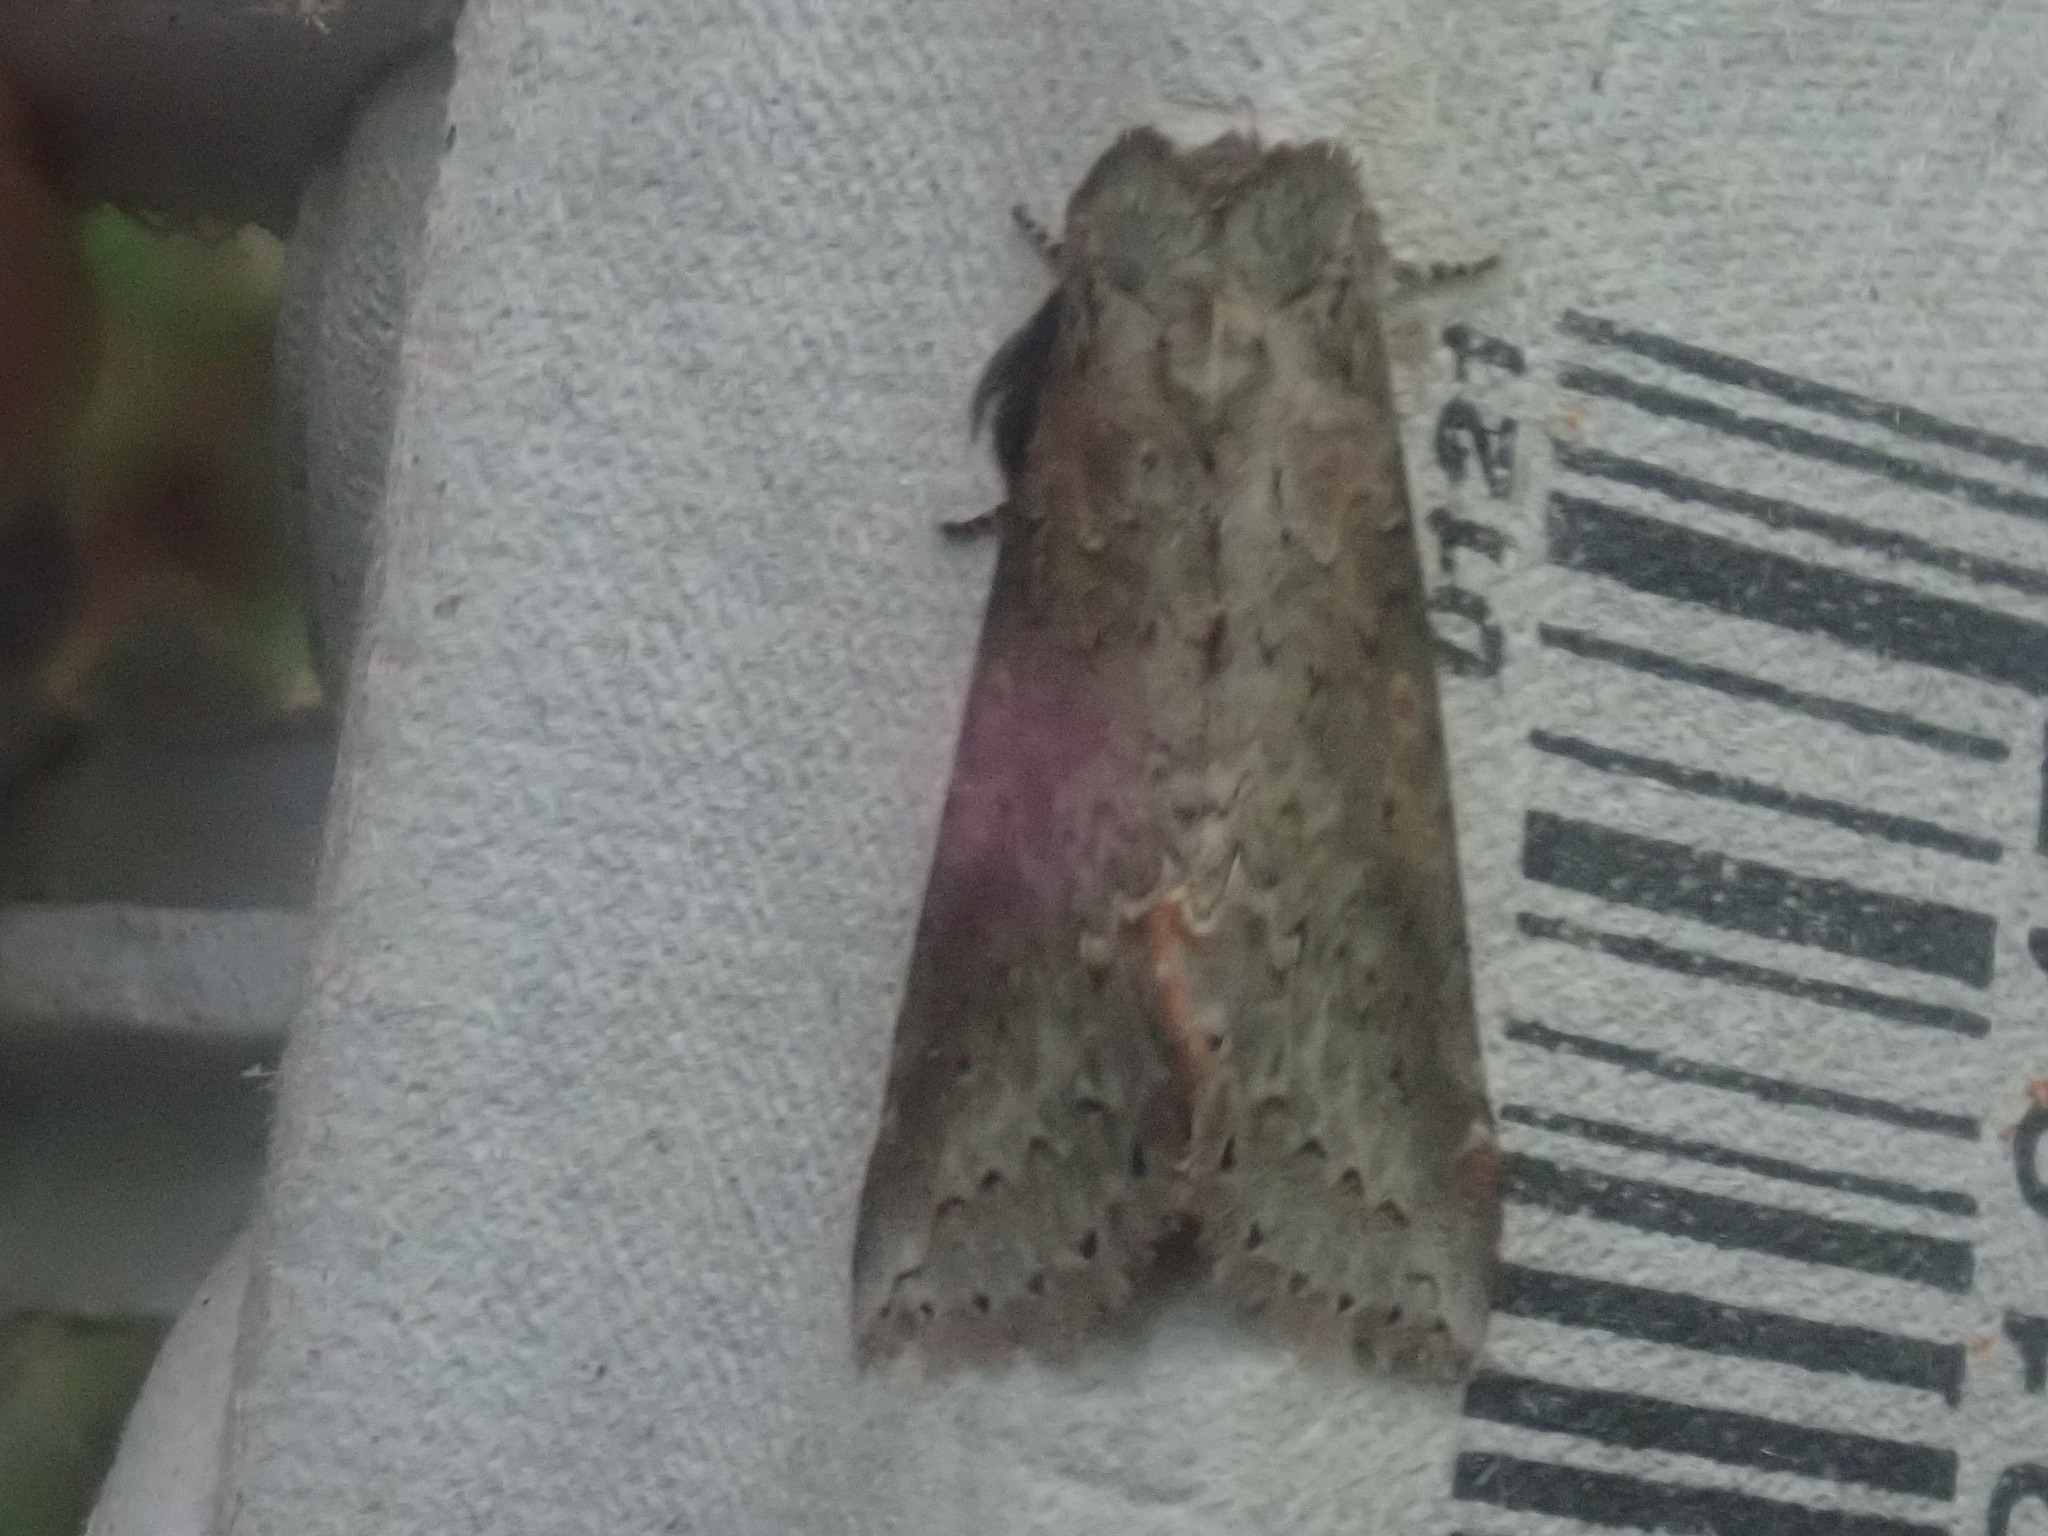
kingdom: Animalia
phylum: Arthropoda
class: Insecta
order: Lepidoptera
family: Drepanidae
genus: Pseudothyatira
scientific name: Pseudothyatira cymatophoroides
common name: Tufted thyatirid moth
